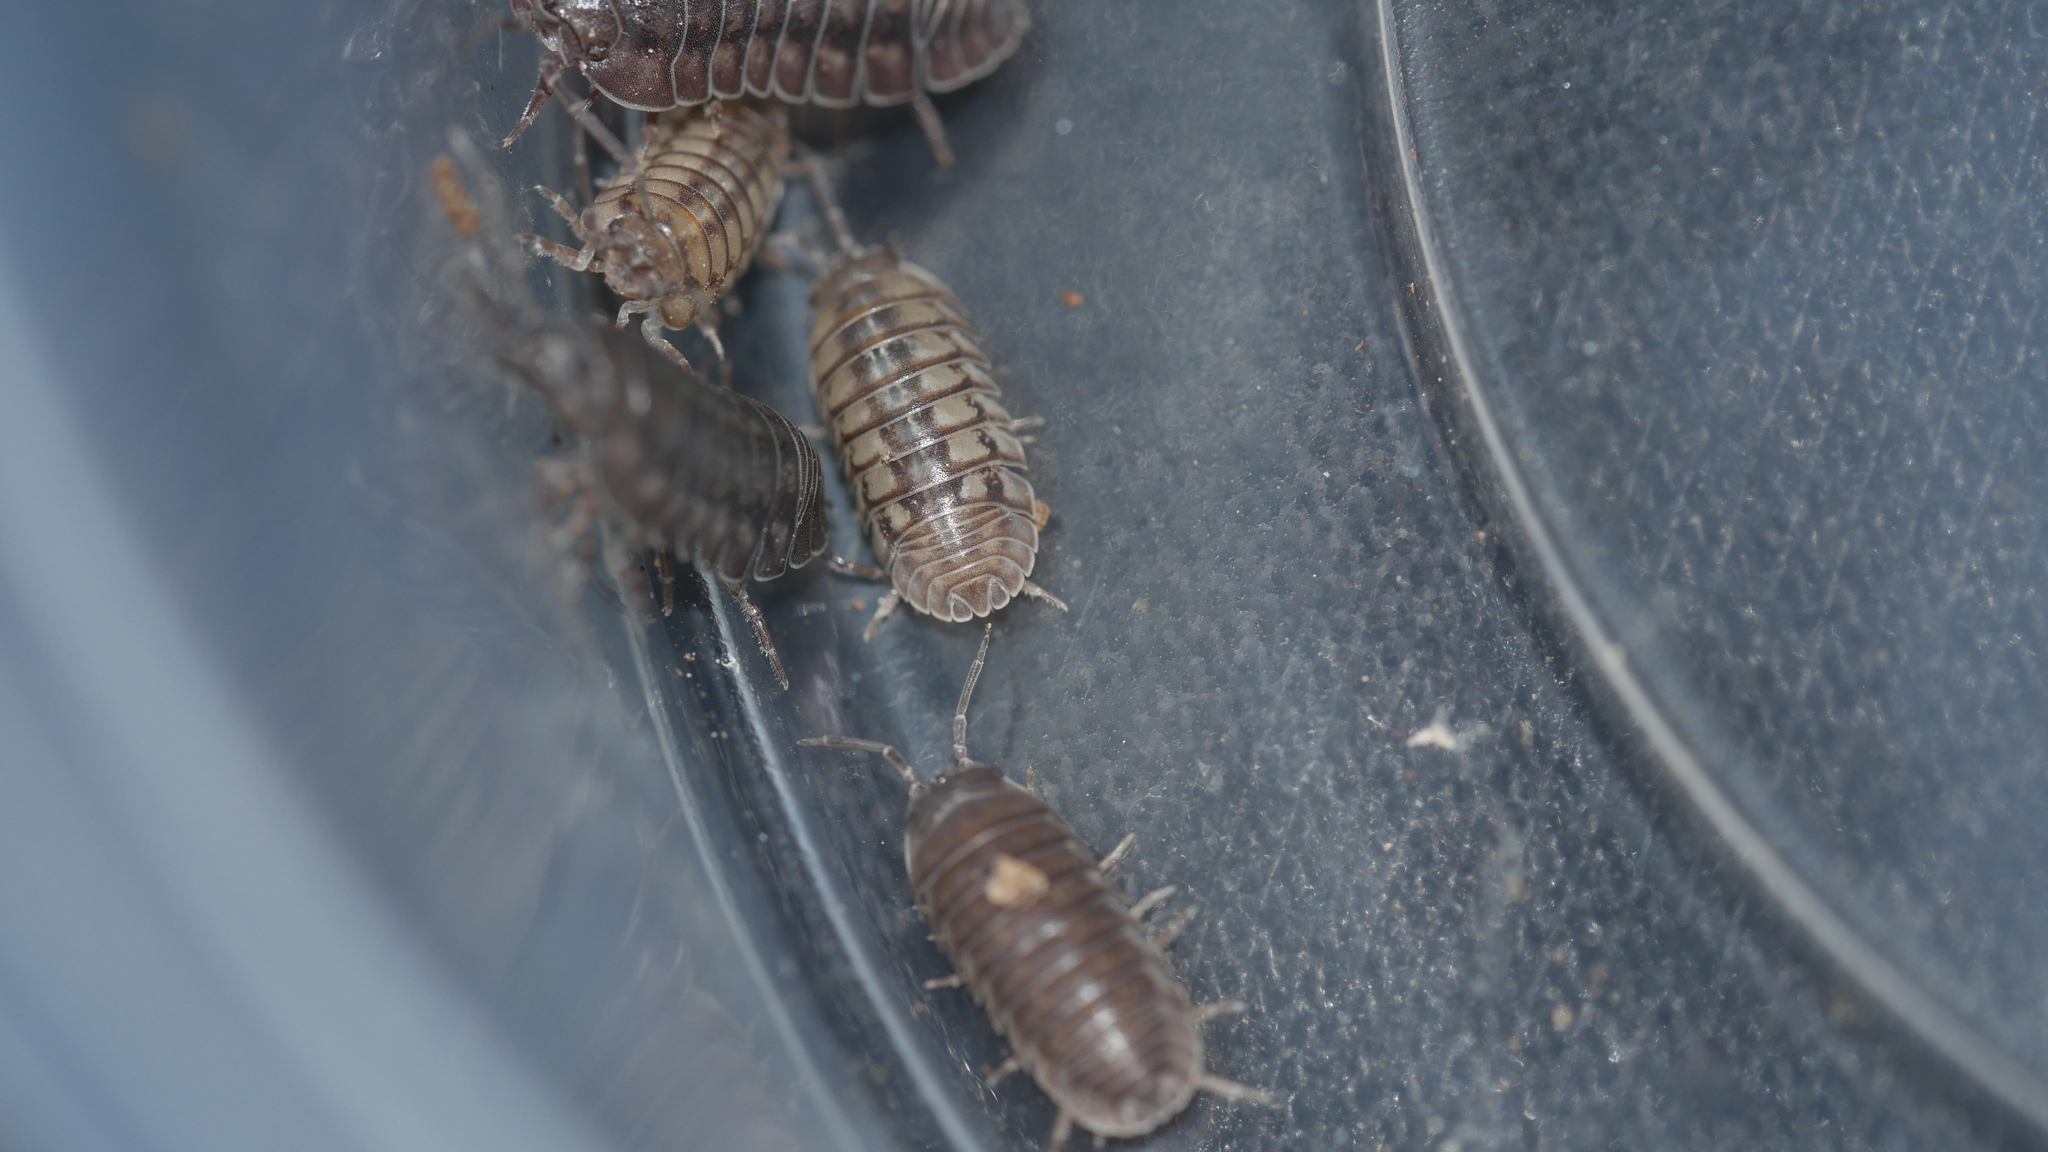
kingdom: Animalia
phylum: Arthropoda
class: Malacostraca
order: Isopoda
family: Armadillidiidae
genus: Armadillidium
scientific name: Armadillidium nasatum
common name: Isopod
